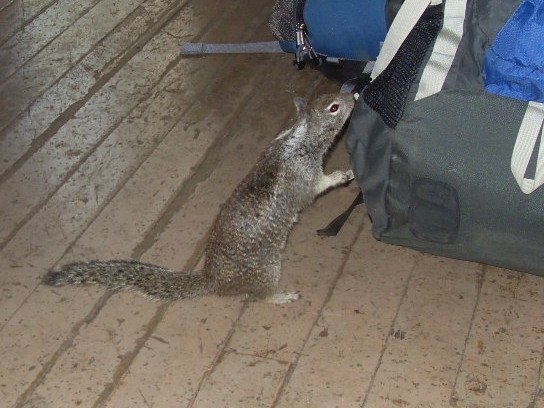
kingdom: Animalia
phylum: Chordata
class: Mammalia
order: Rodentia
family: Sciuridae
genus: Otospermophilus
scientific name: Otospermophilus beecheyi
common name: California ground squirrel
